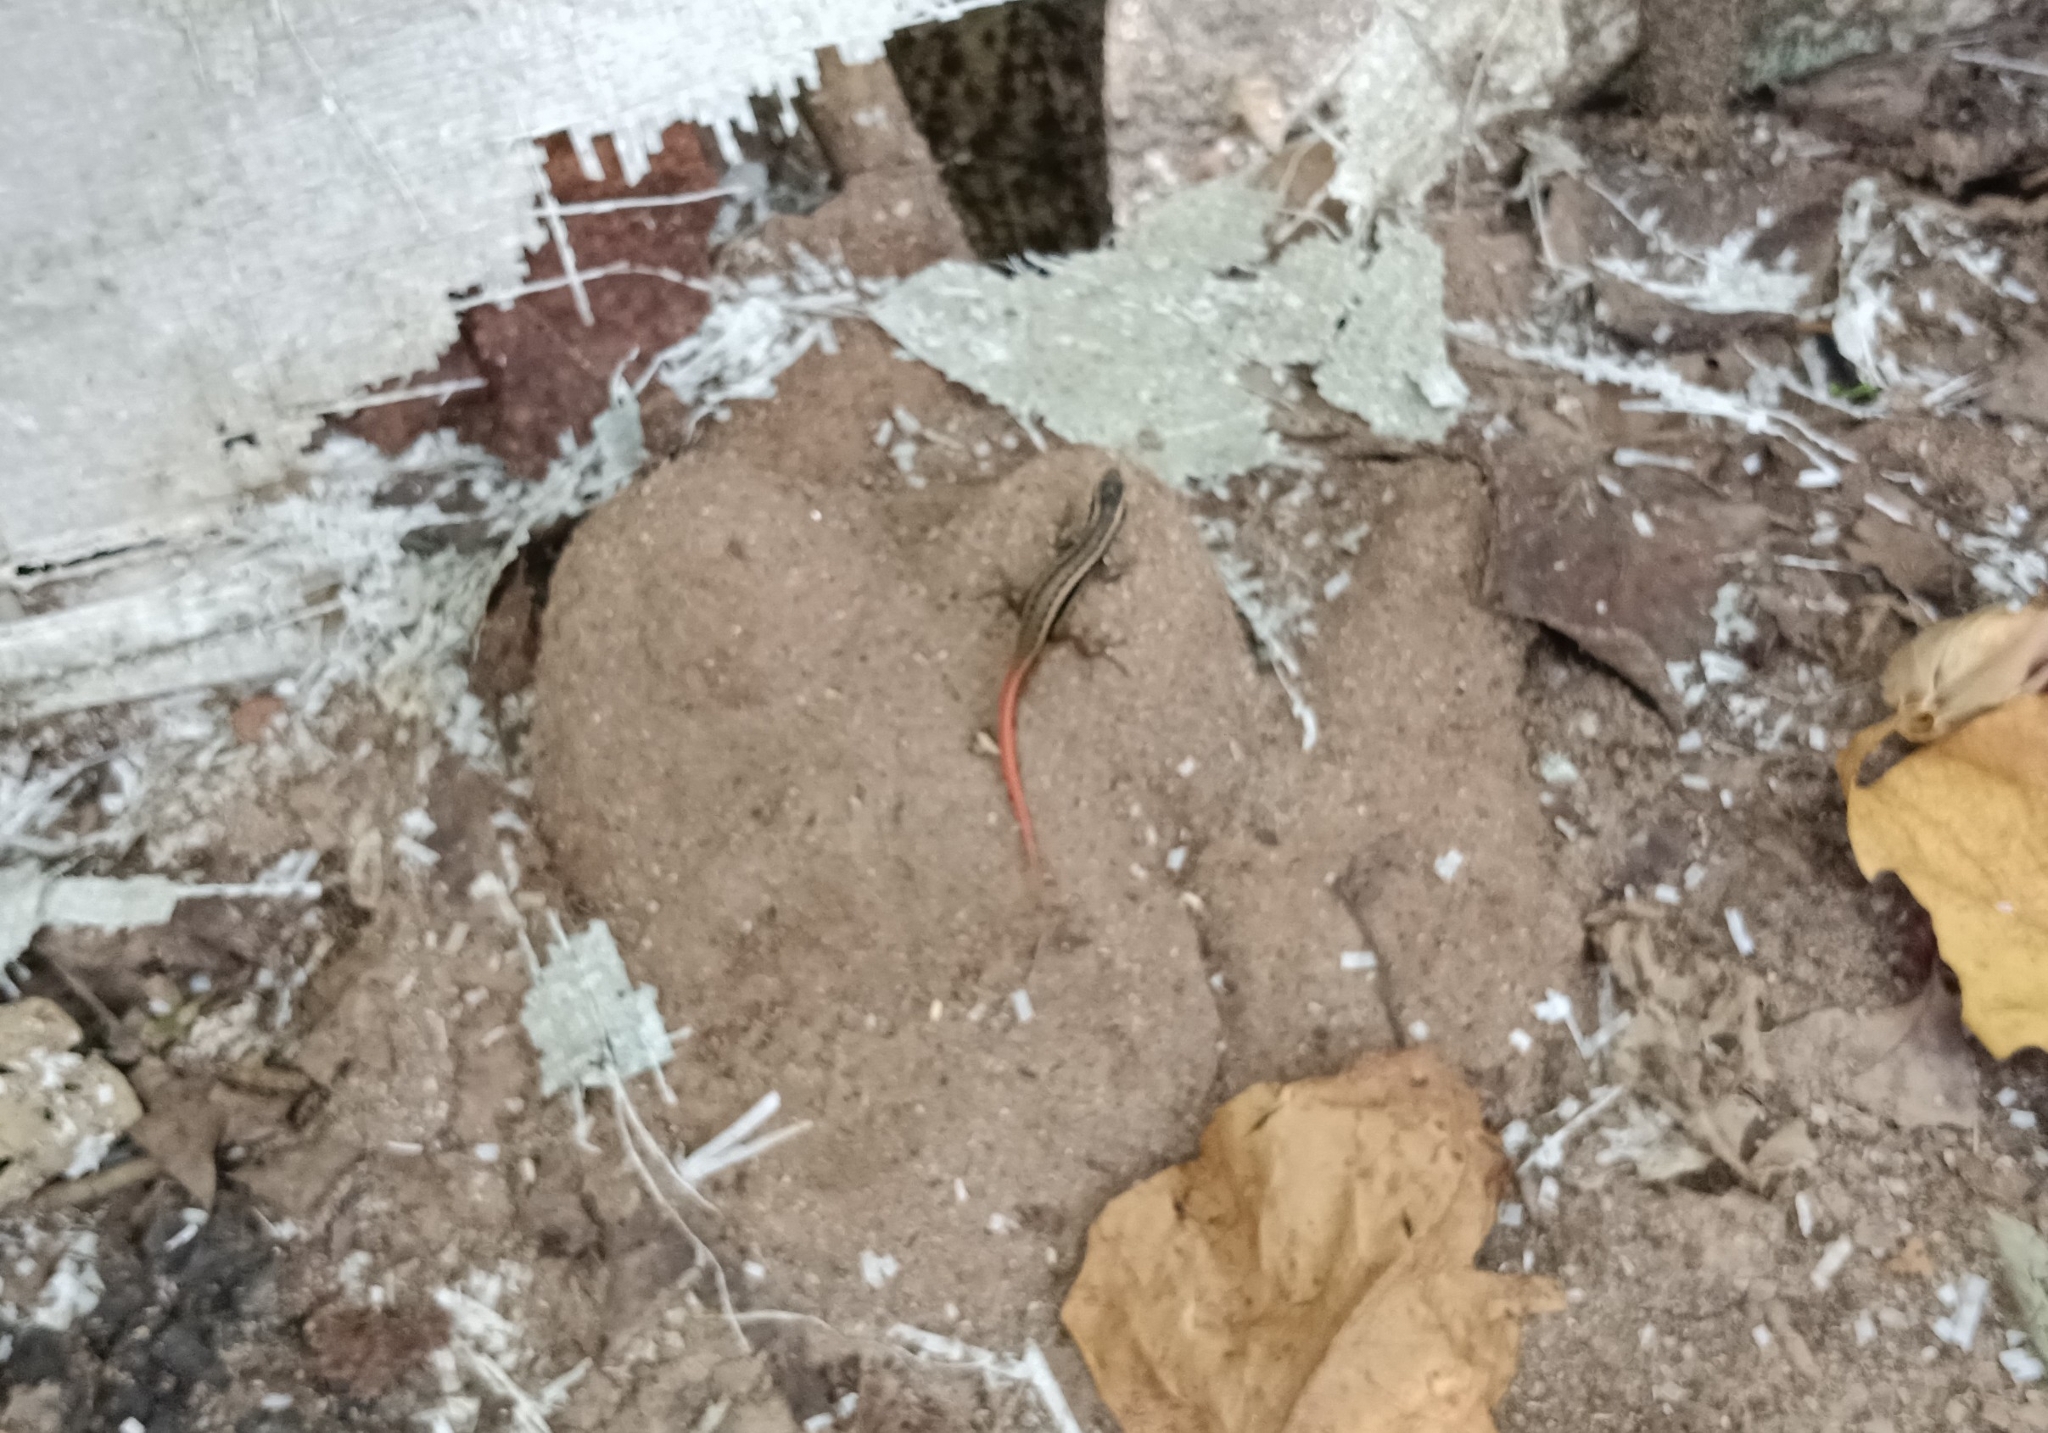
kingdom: Animalia
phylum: Chordata
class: Squamata
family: Scincidae
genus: Sphenomorphus
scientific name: Sphenomorphus dussumieri
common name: Dussumier's forest skink
